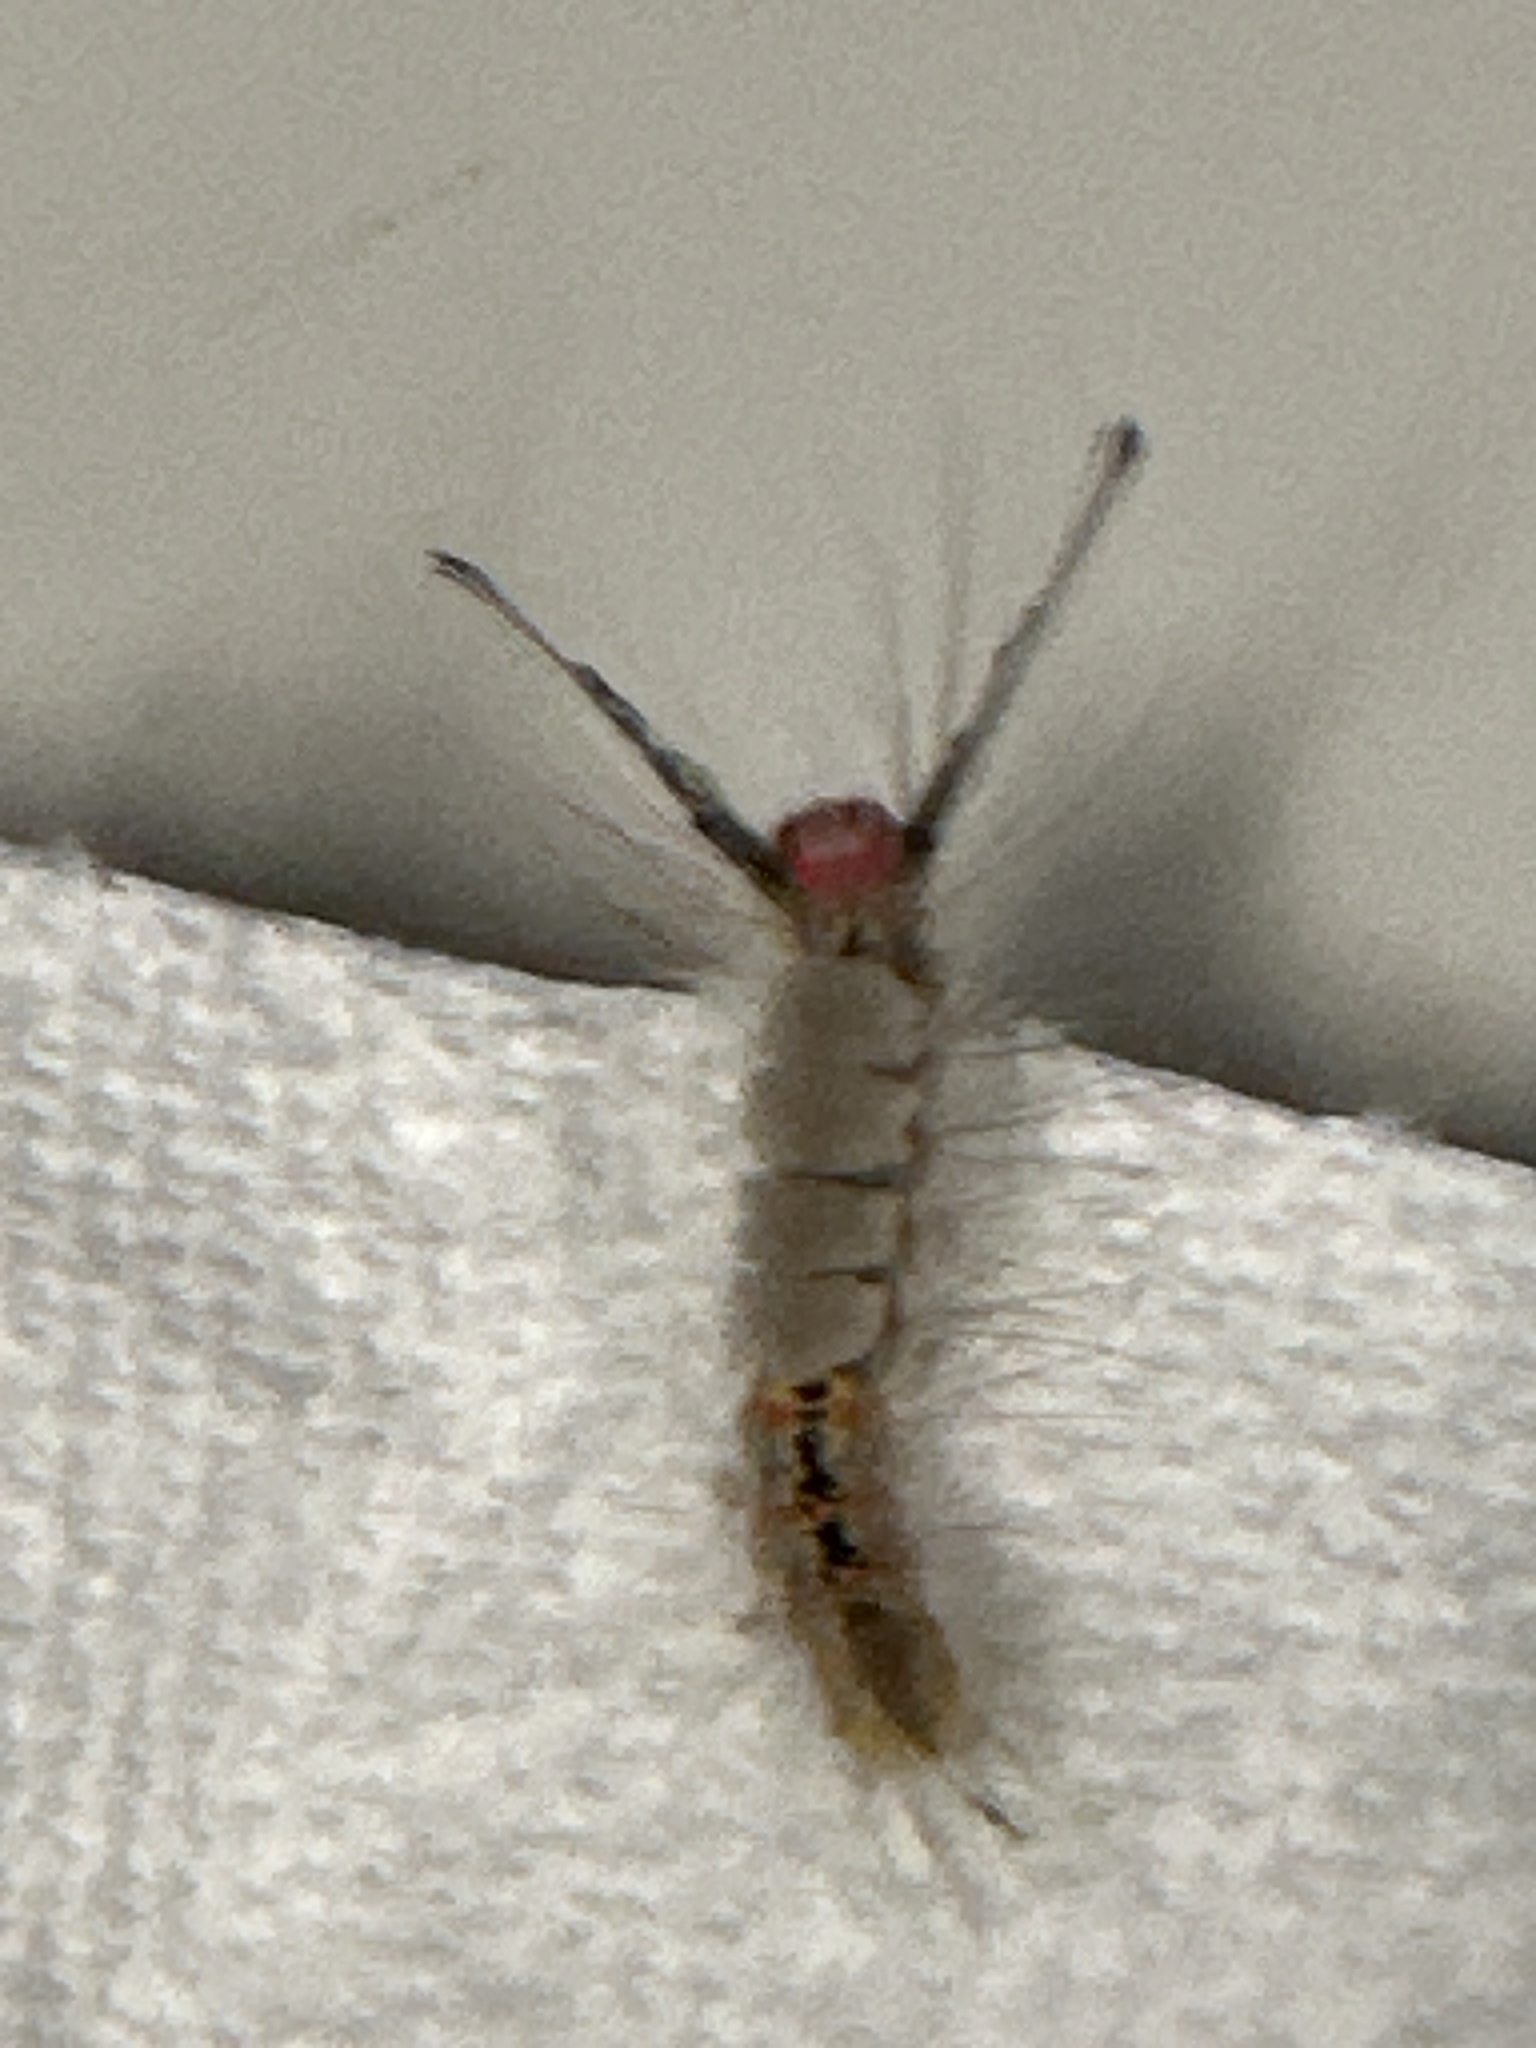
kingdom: Animalia
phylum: Arthropoda
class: Insecta
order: Lepidoptera
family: Erebidae
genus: Orgyia
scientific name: Orgyia detrita
